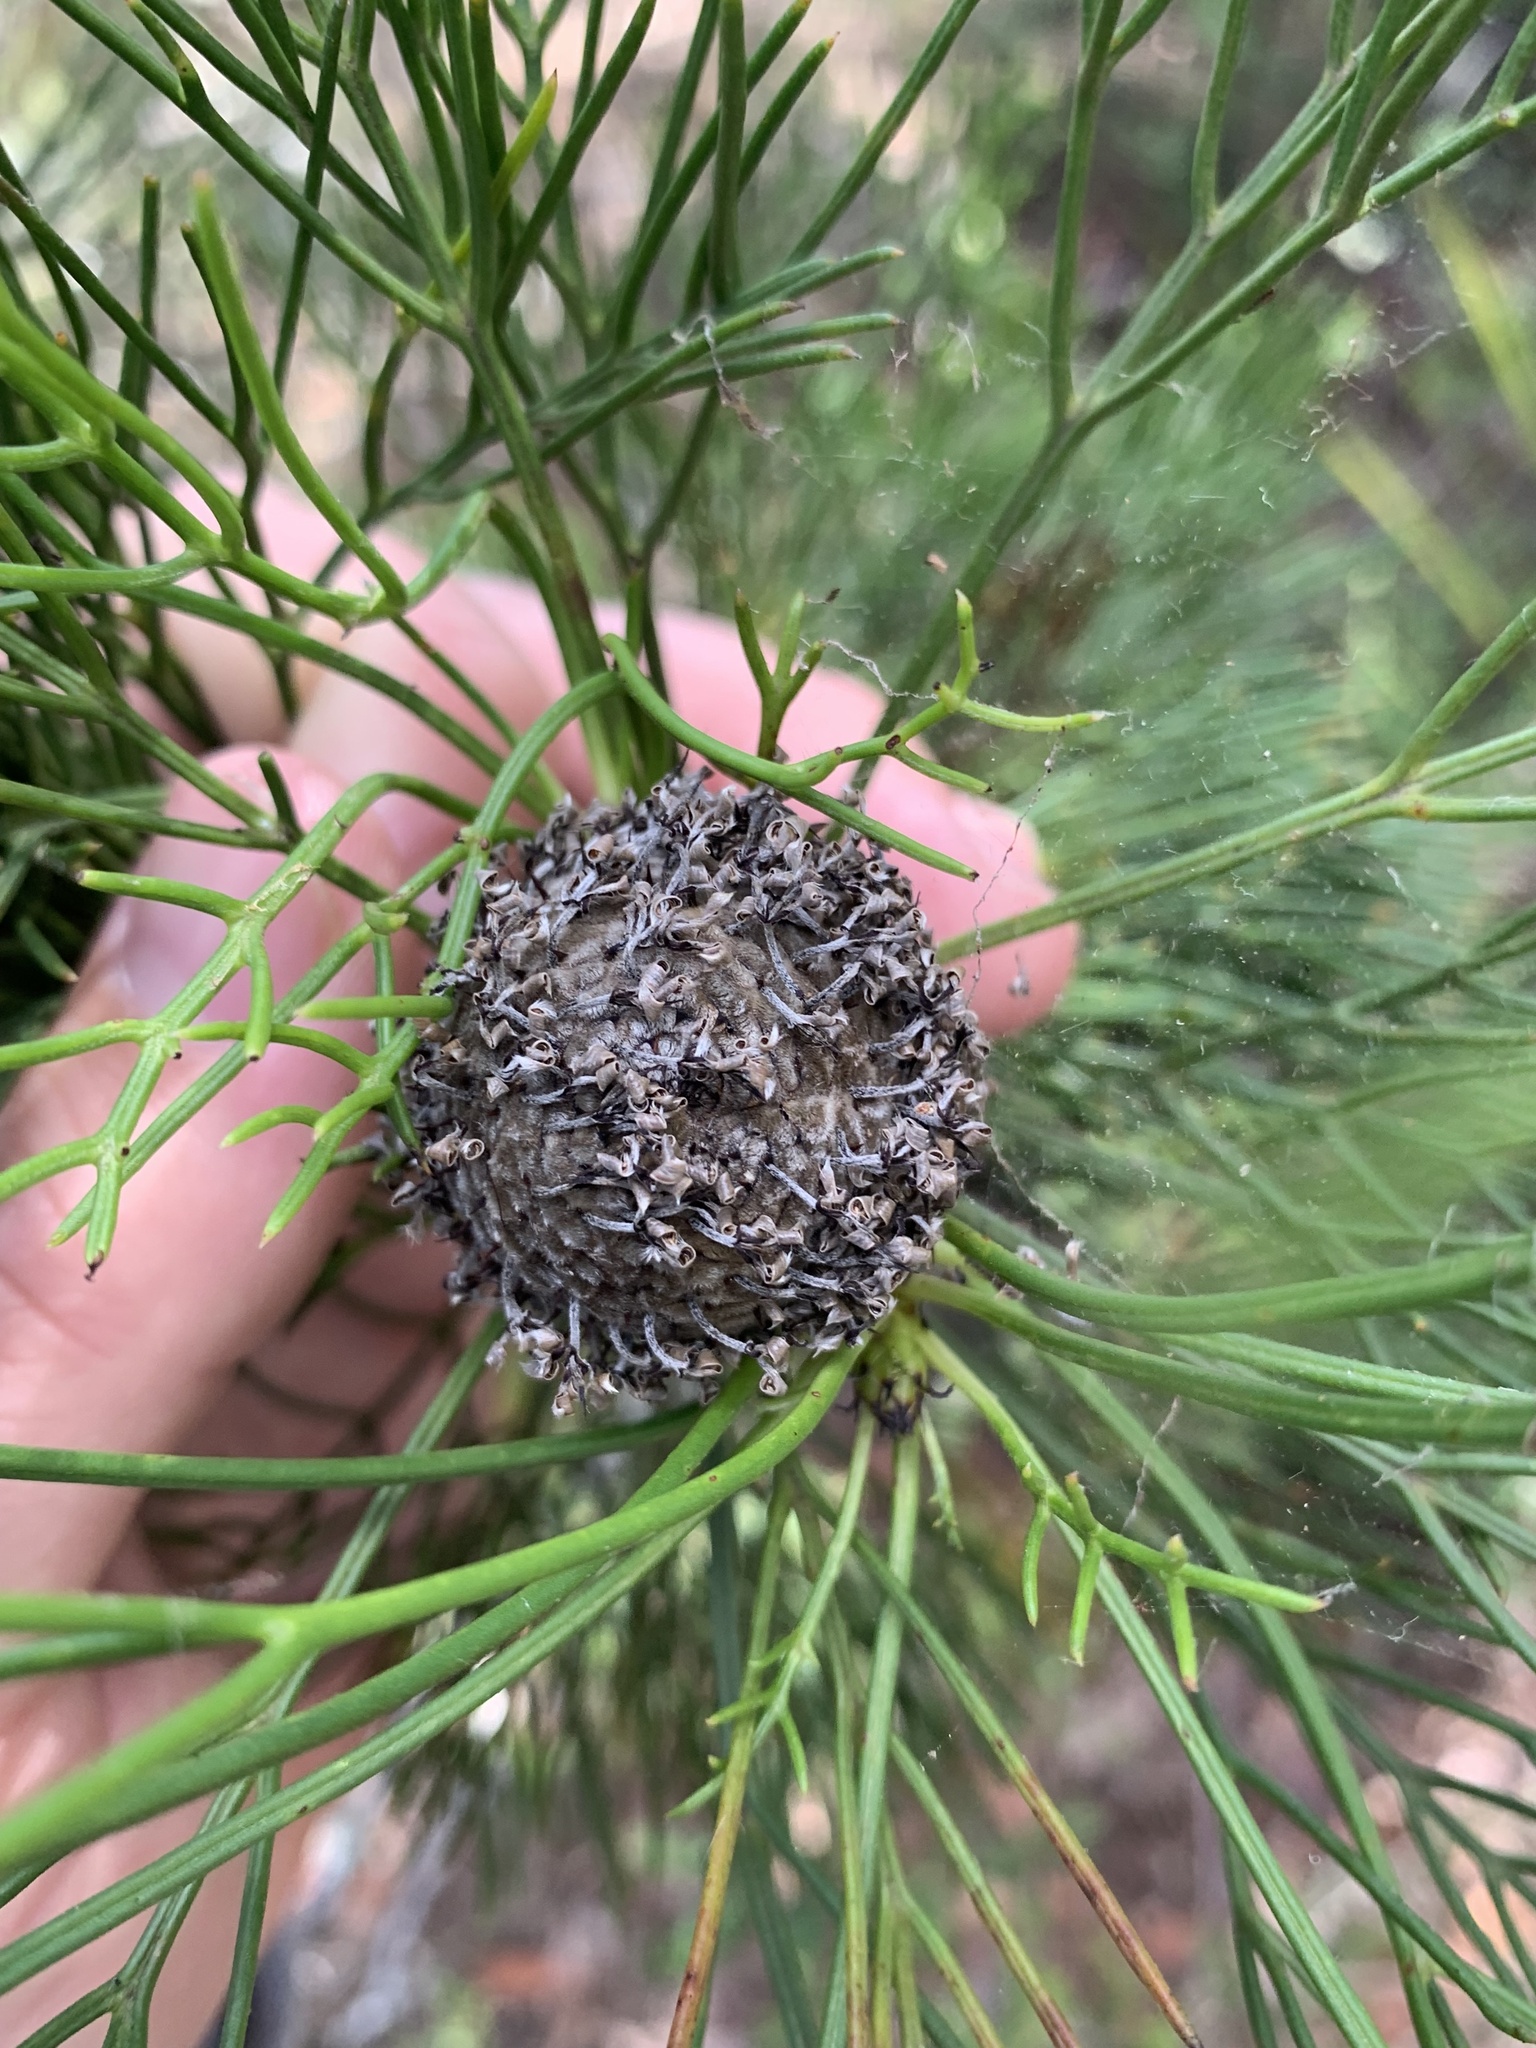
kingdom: Plantae
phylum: Tracheophyta
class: Magnoliopsida
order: Proteales
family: Proteaceae
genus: Isopogon
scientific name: Isopogon anethifolius
